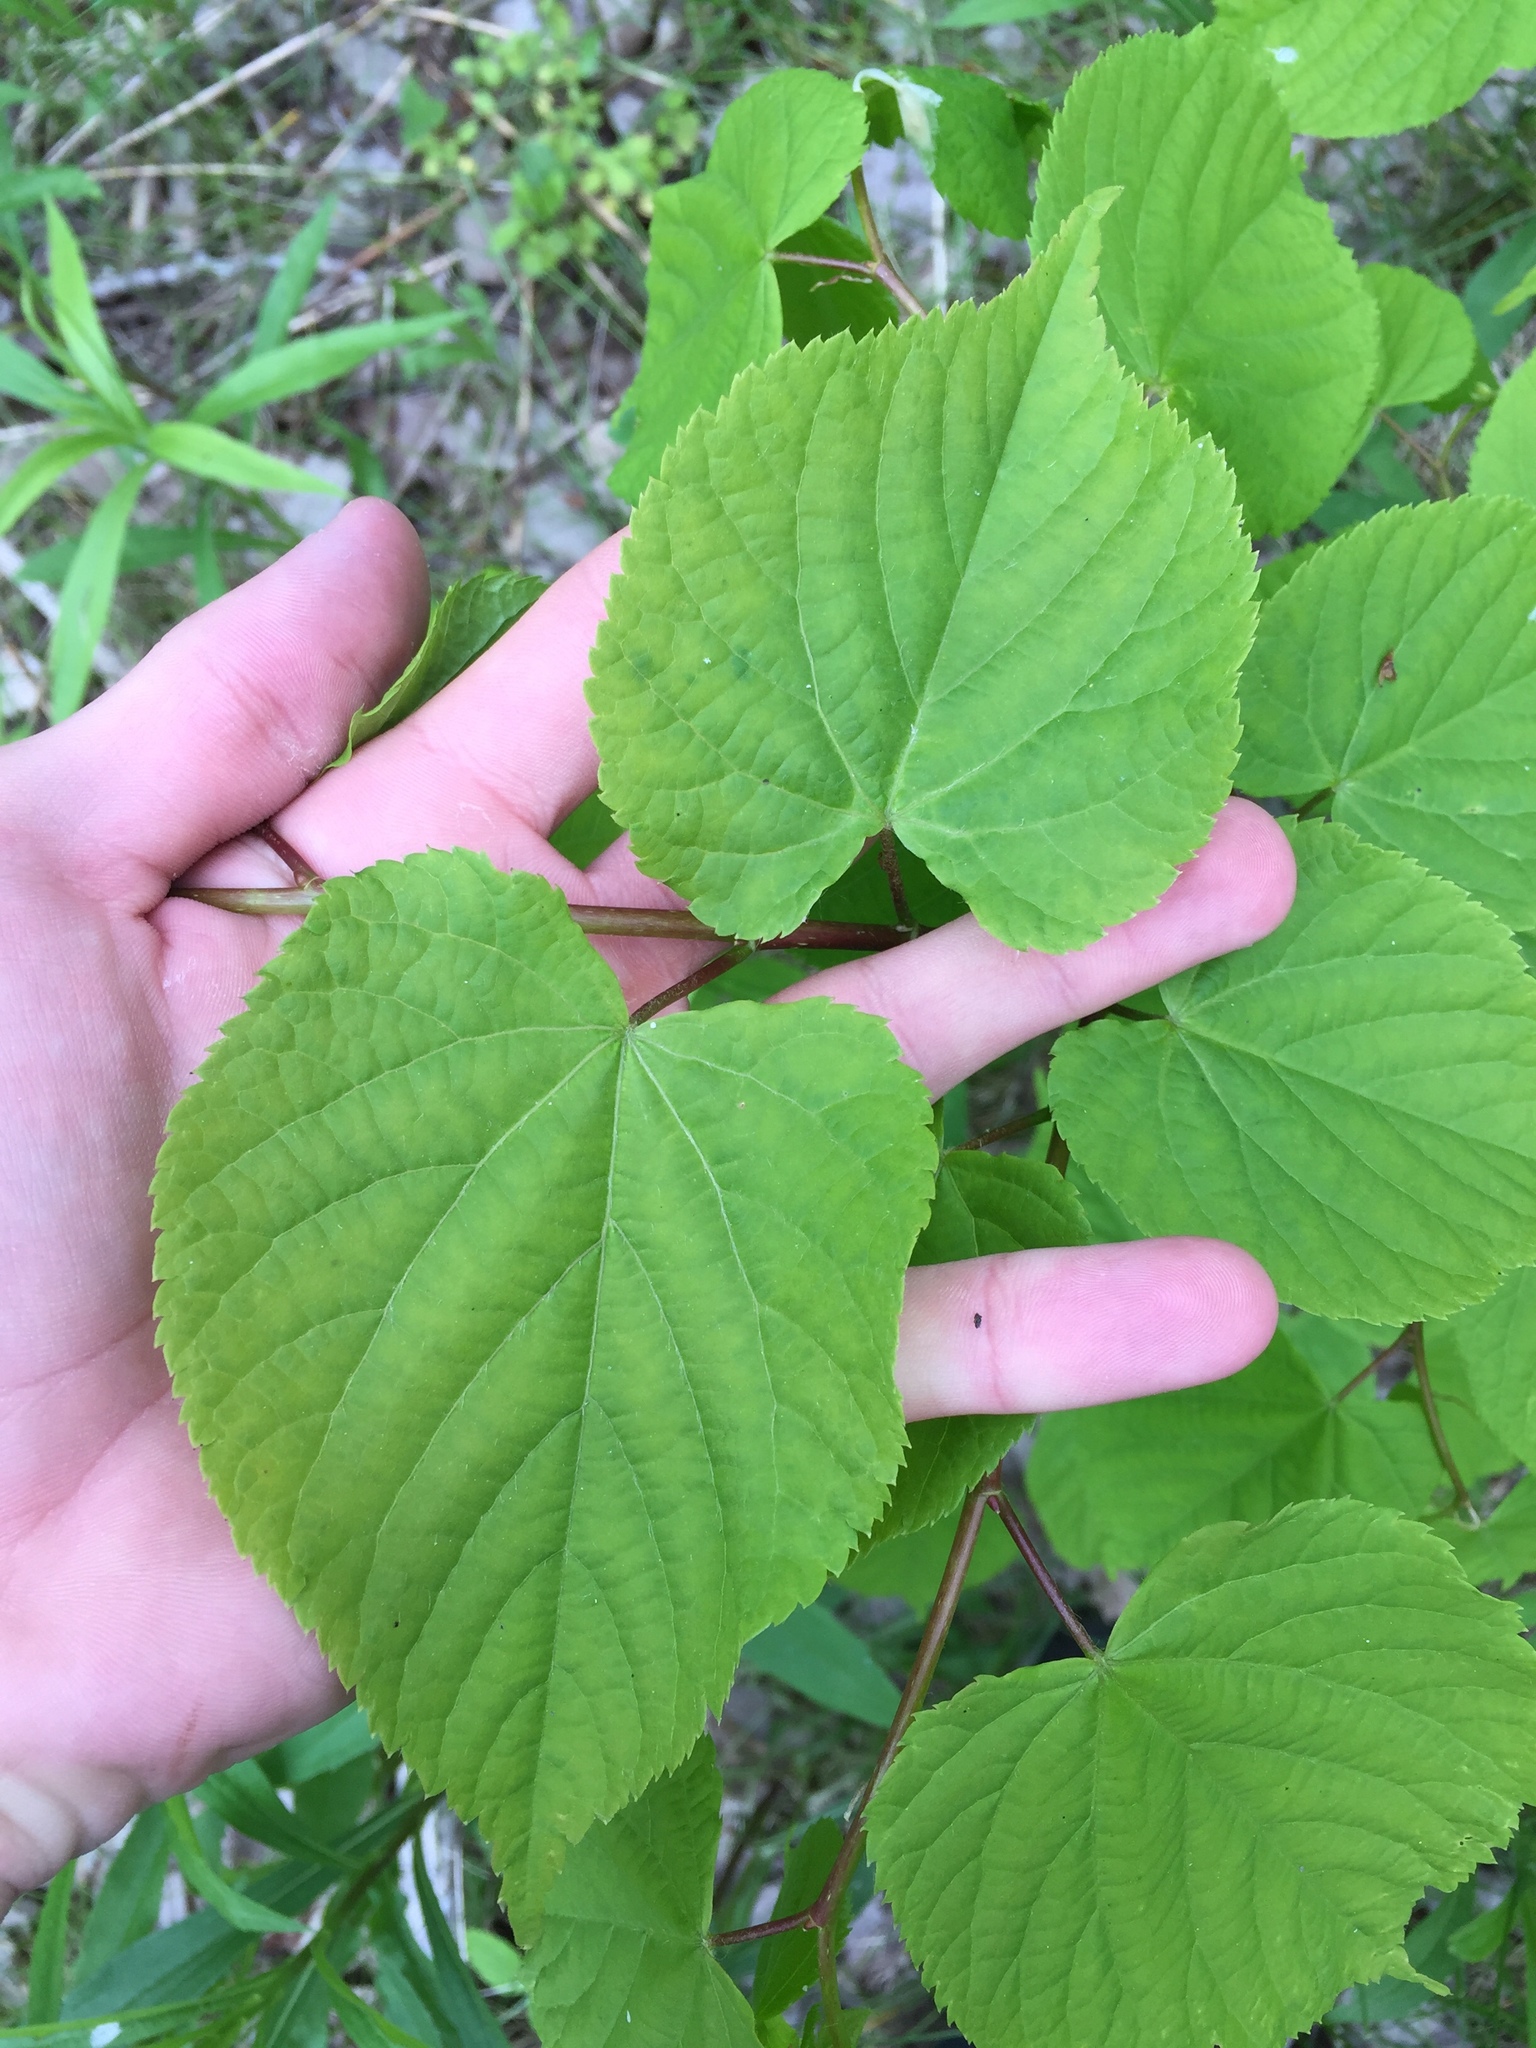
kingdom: Plantae
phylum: Tracheophyta
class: Magnoliopsida
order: Malvales
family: Malvaceae
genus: Tilia
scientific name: Tilia americana
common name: Basswood
